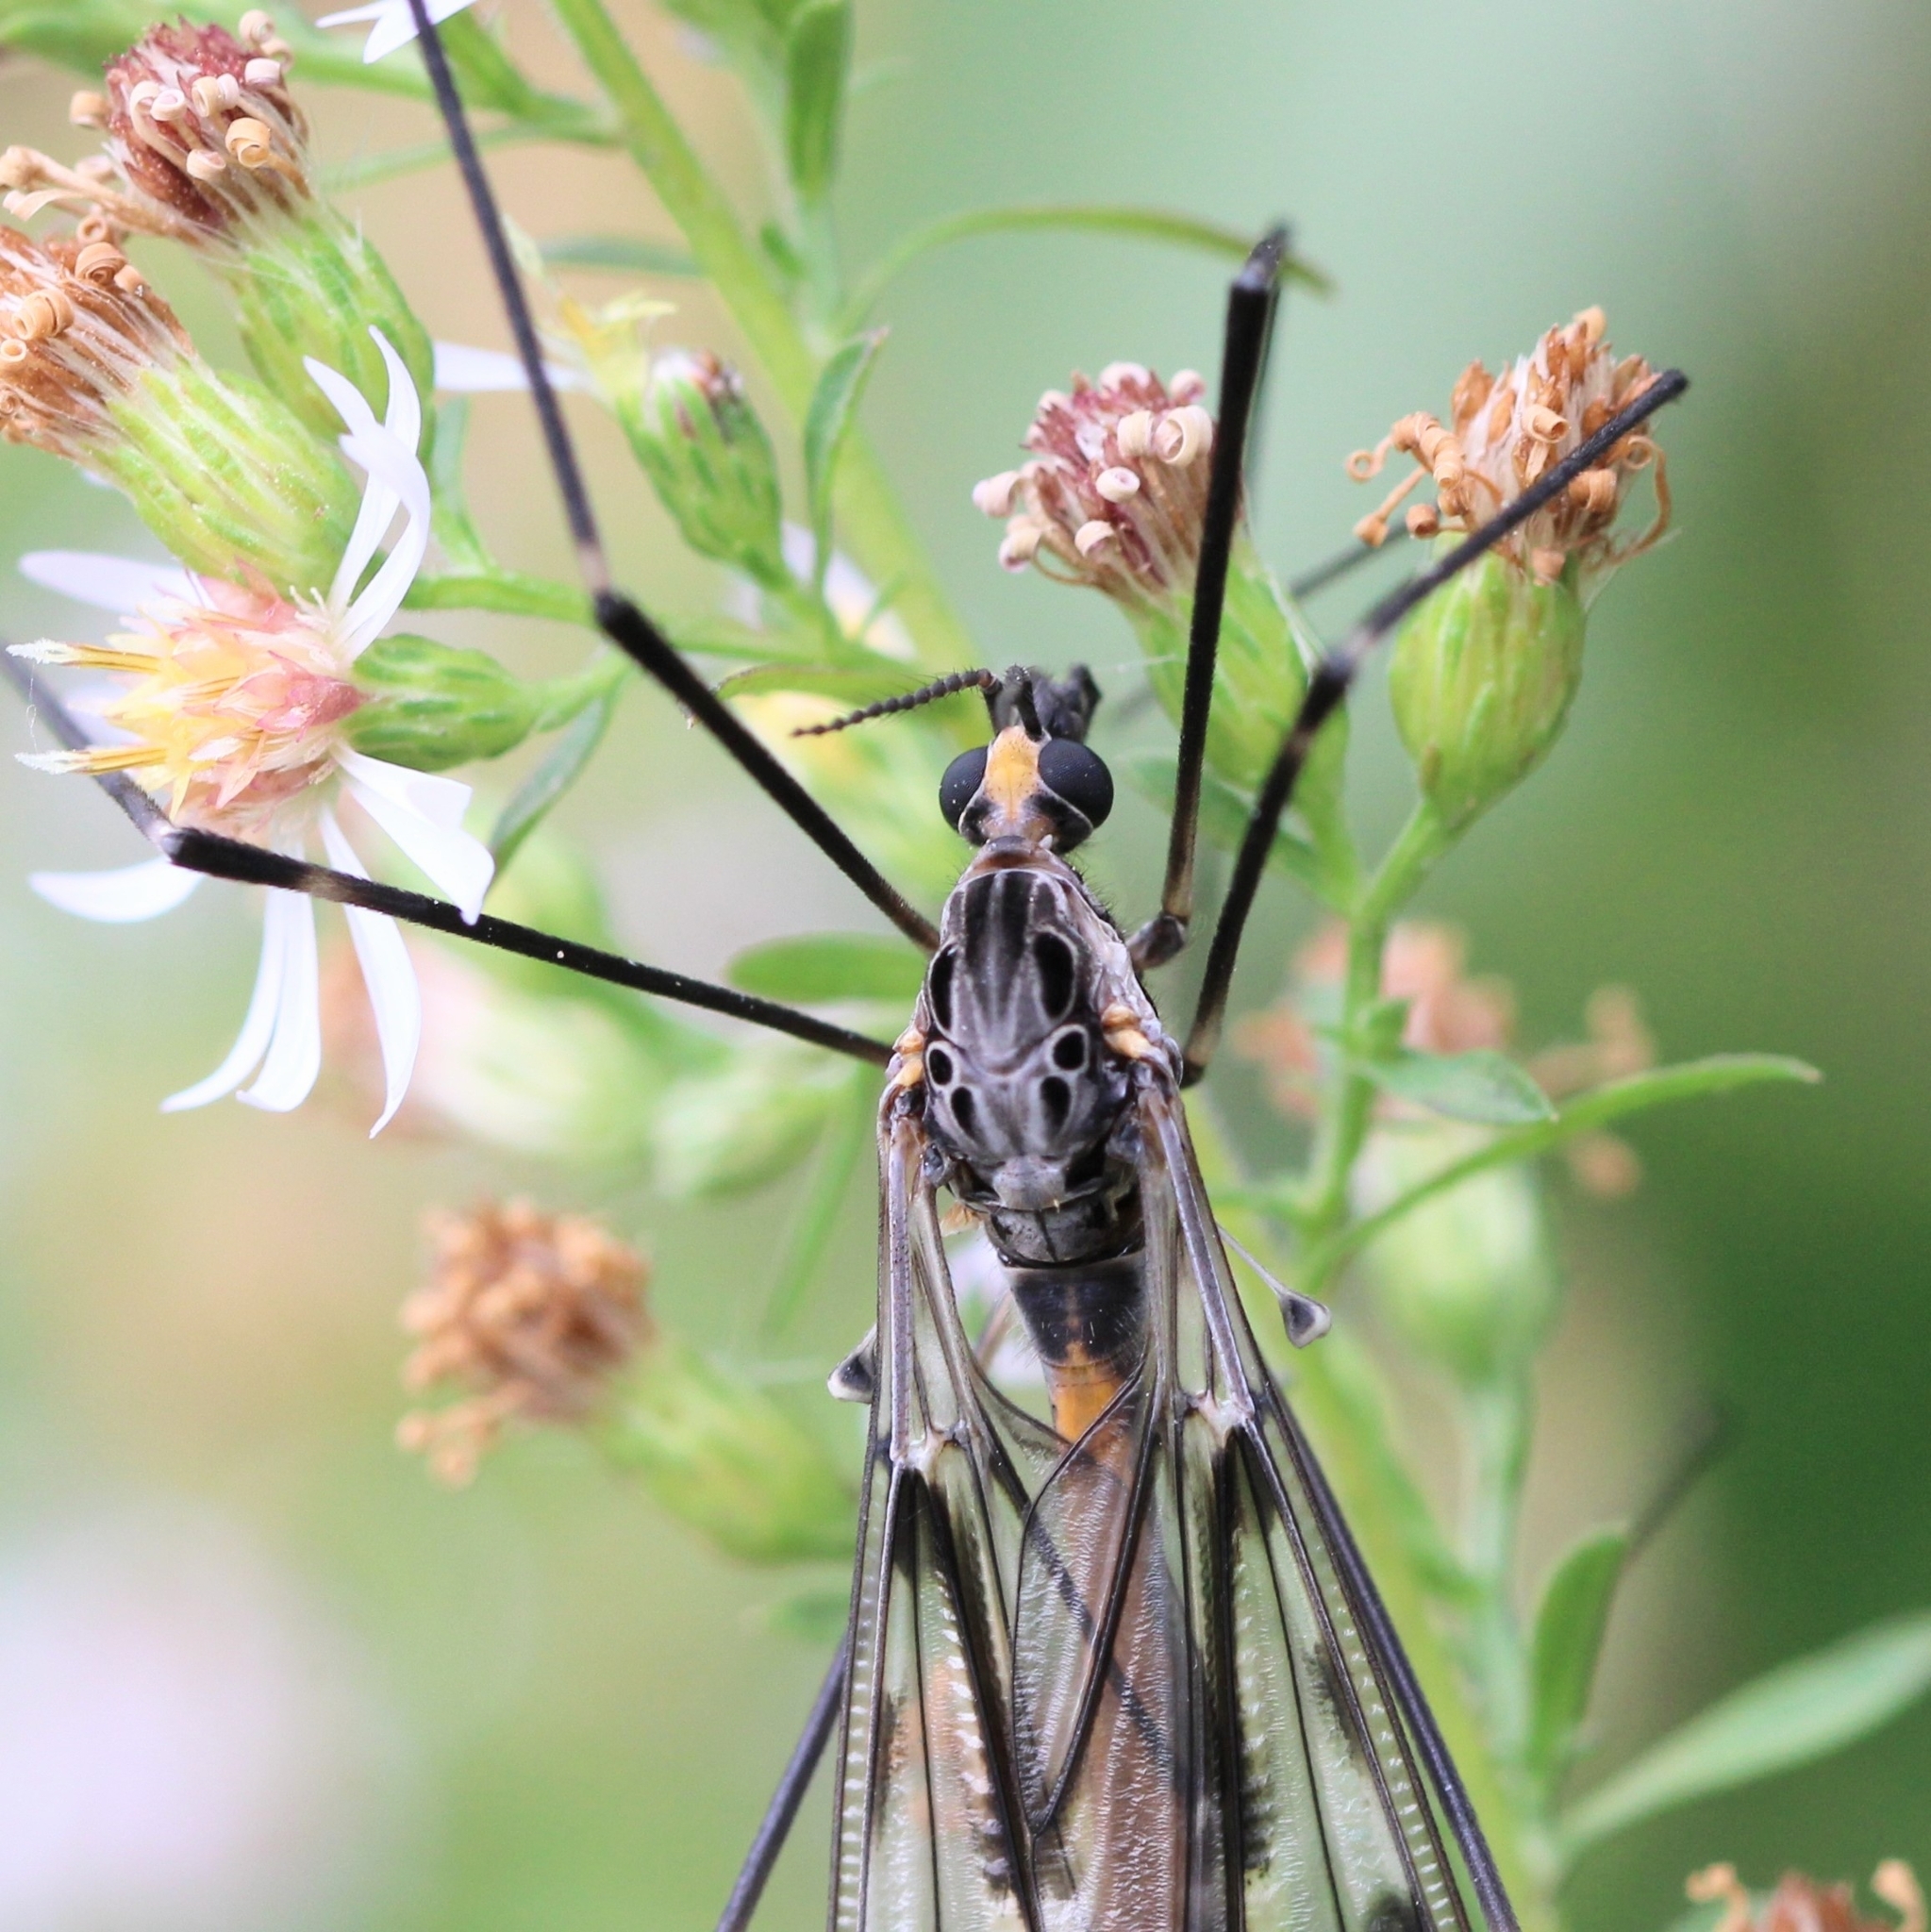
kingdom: Animalia
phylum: Arthropoda
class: Insecta
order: Diptera
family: Tipulidae
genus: Tipula
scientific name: Tipula abdominalis
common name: Giant crane fly
